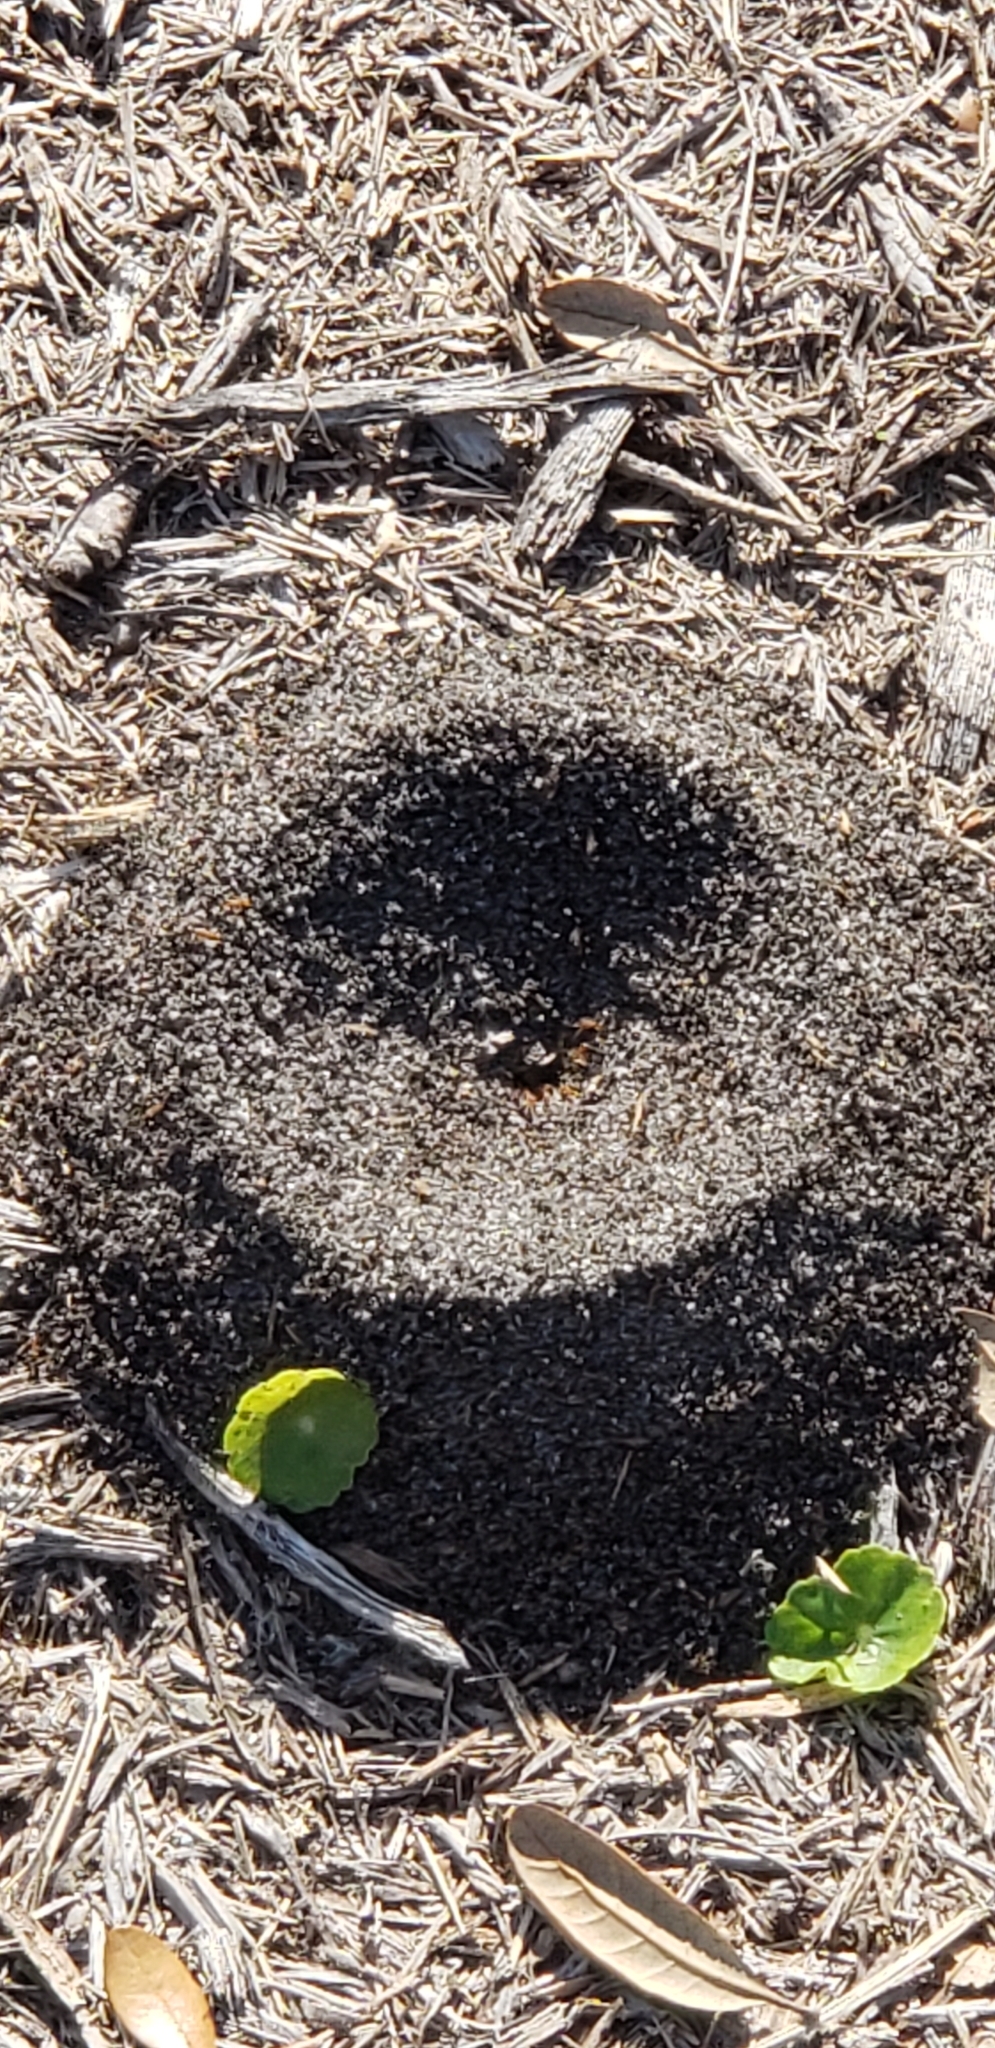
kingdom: Animalia
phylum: Arthropoda
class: Insecta
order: Hymenoptera
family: Formicidae
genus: Dorymyrmex
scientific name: Dorymyrmex bureni
